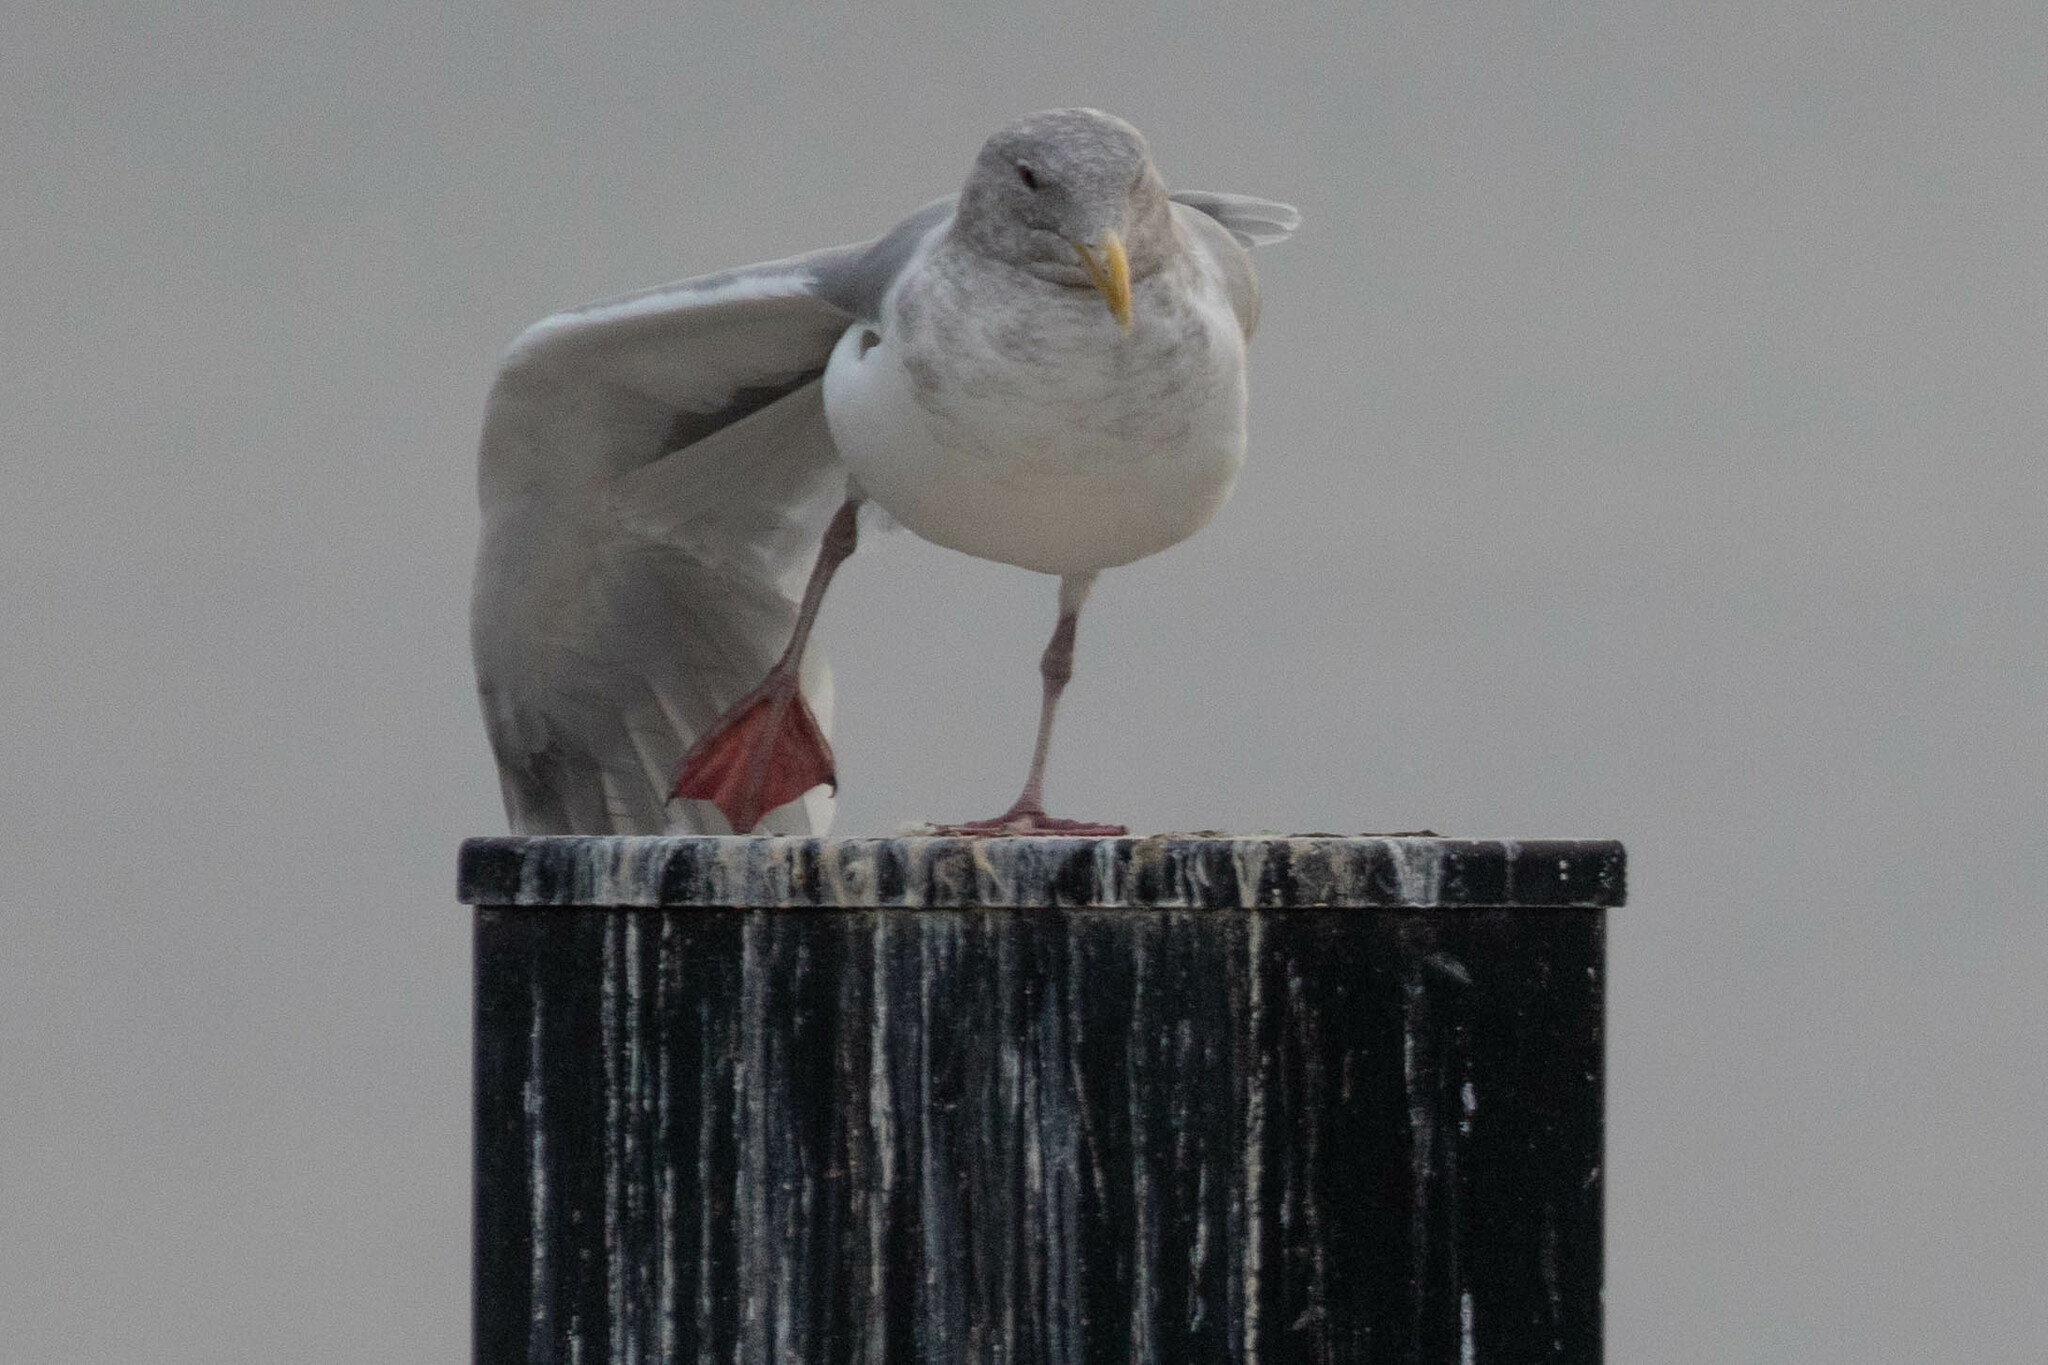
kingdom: Animalia
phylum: Chordata
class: Aves
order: Charadriiformes
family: Laridae
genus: Larus
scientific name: Larus glaucescens
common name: Glaucous-winged gull
